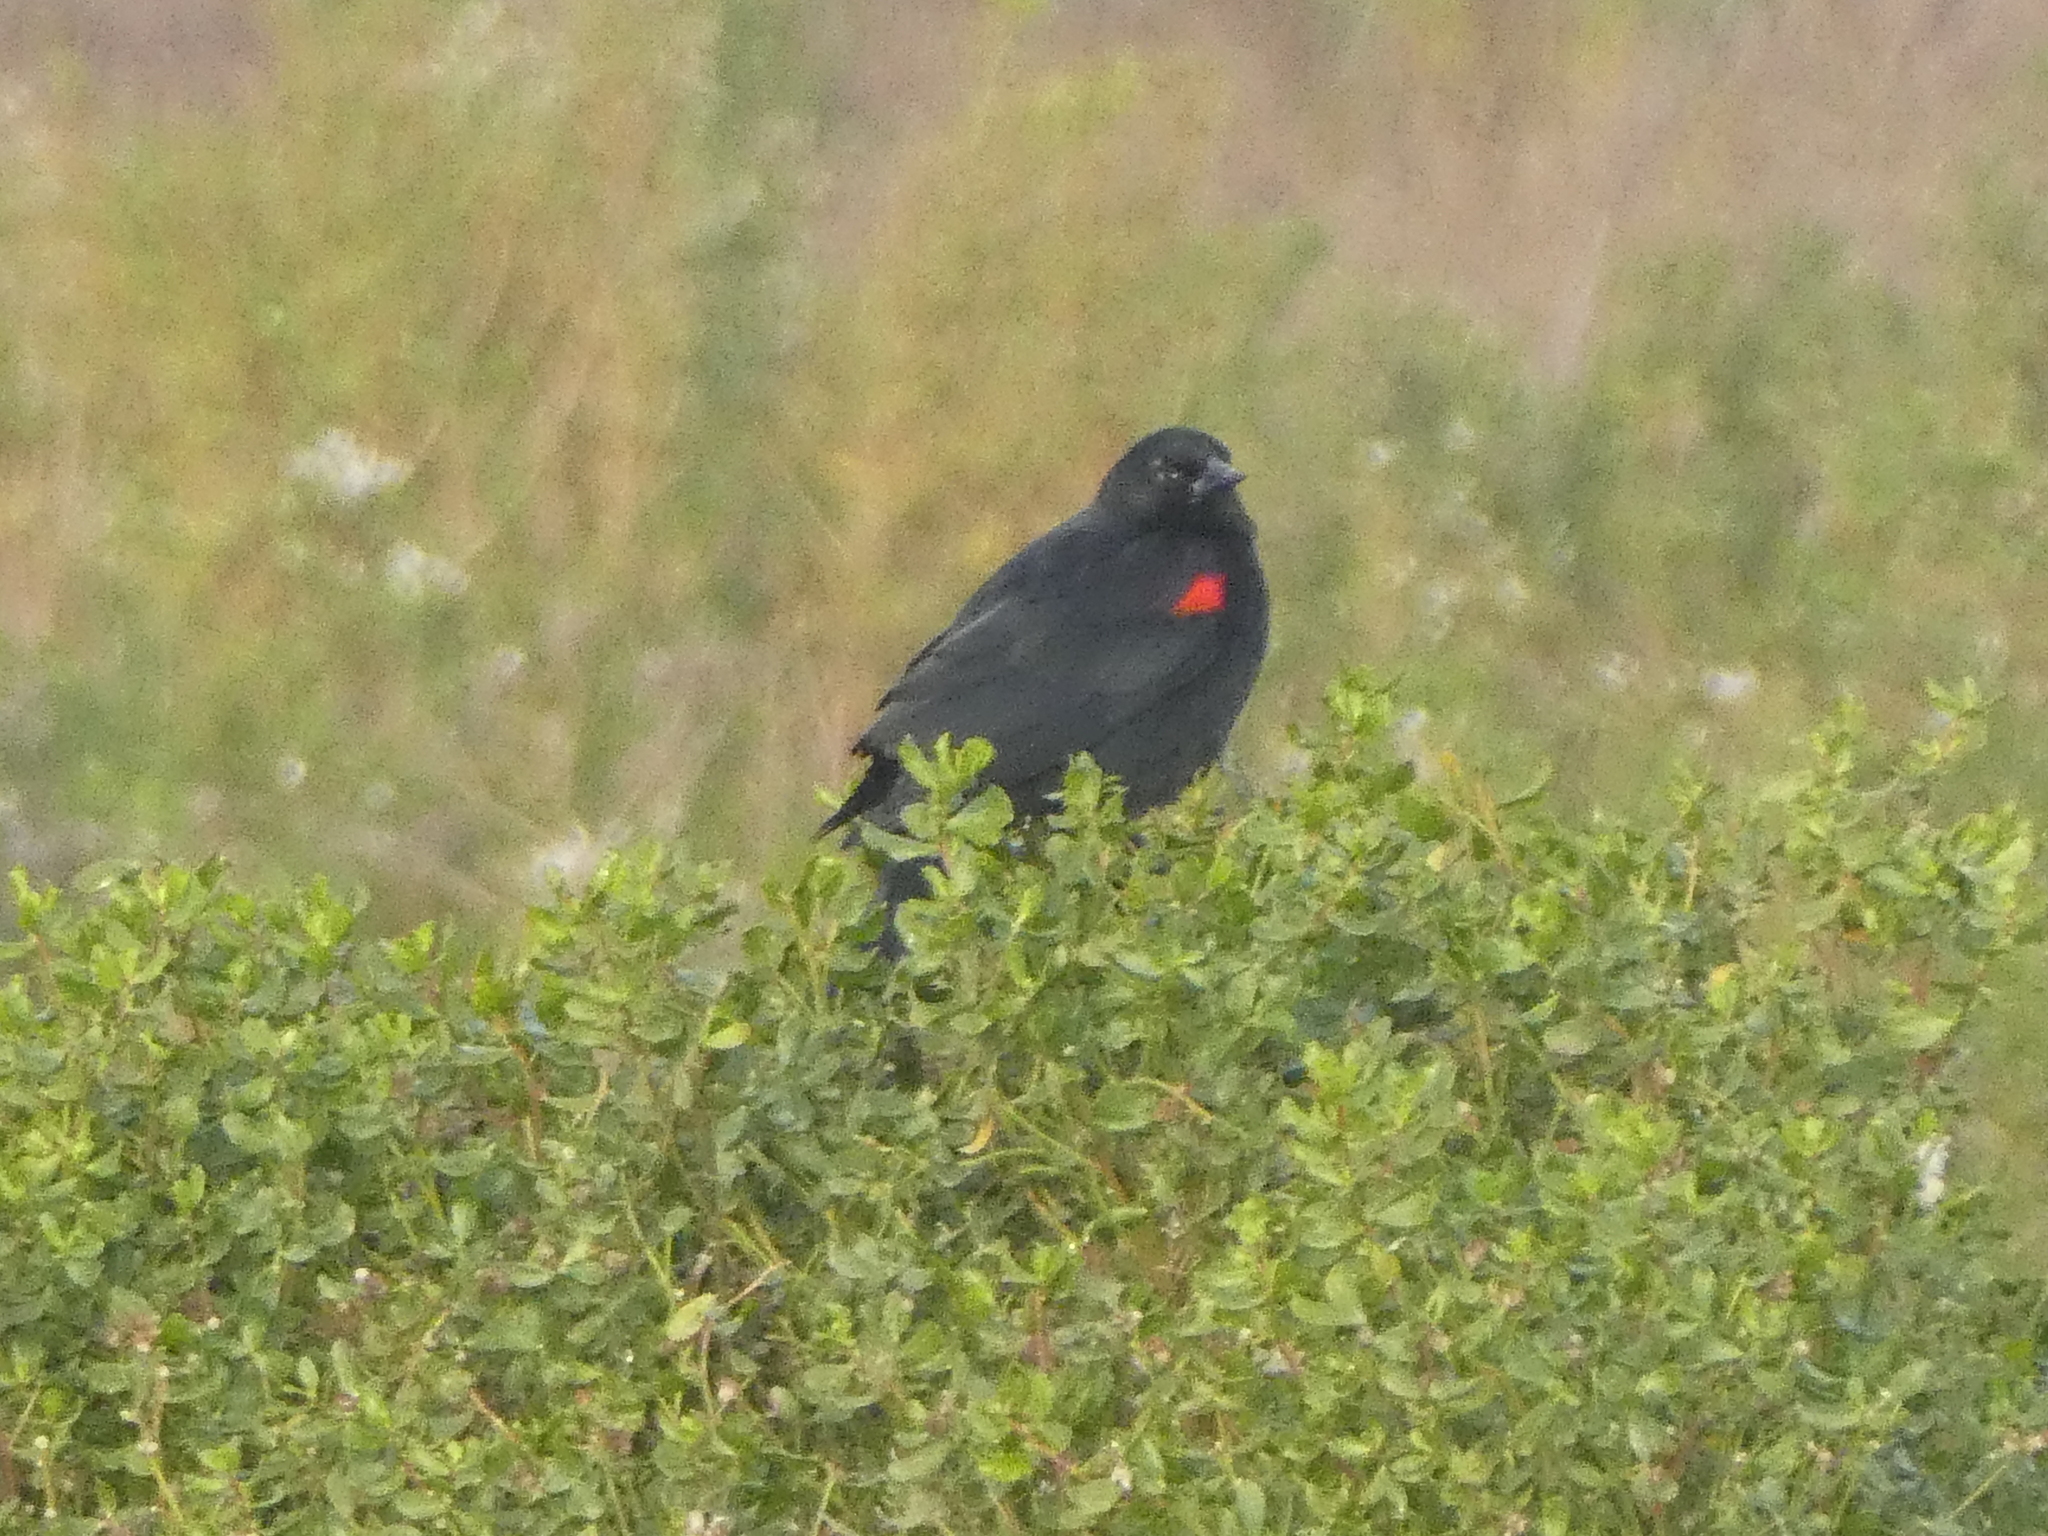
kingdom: Animalia
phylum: Chordata
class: Aves
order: Passeriformes
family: Icteridae
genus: Agelaius
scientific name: Agelaius phoeniceus
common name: Red-winged blackbird
